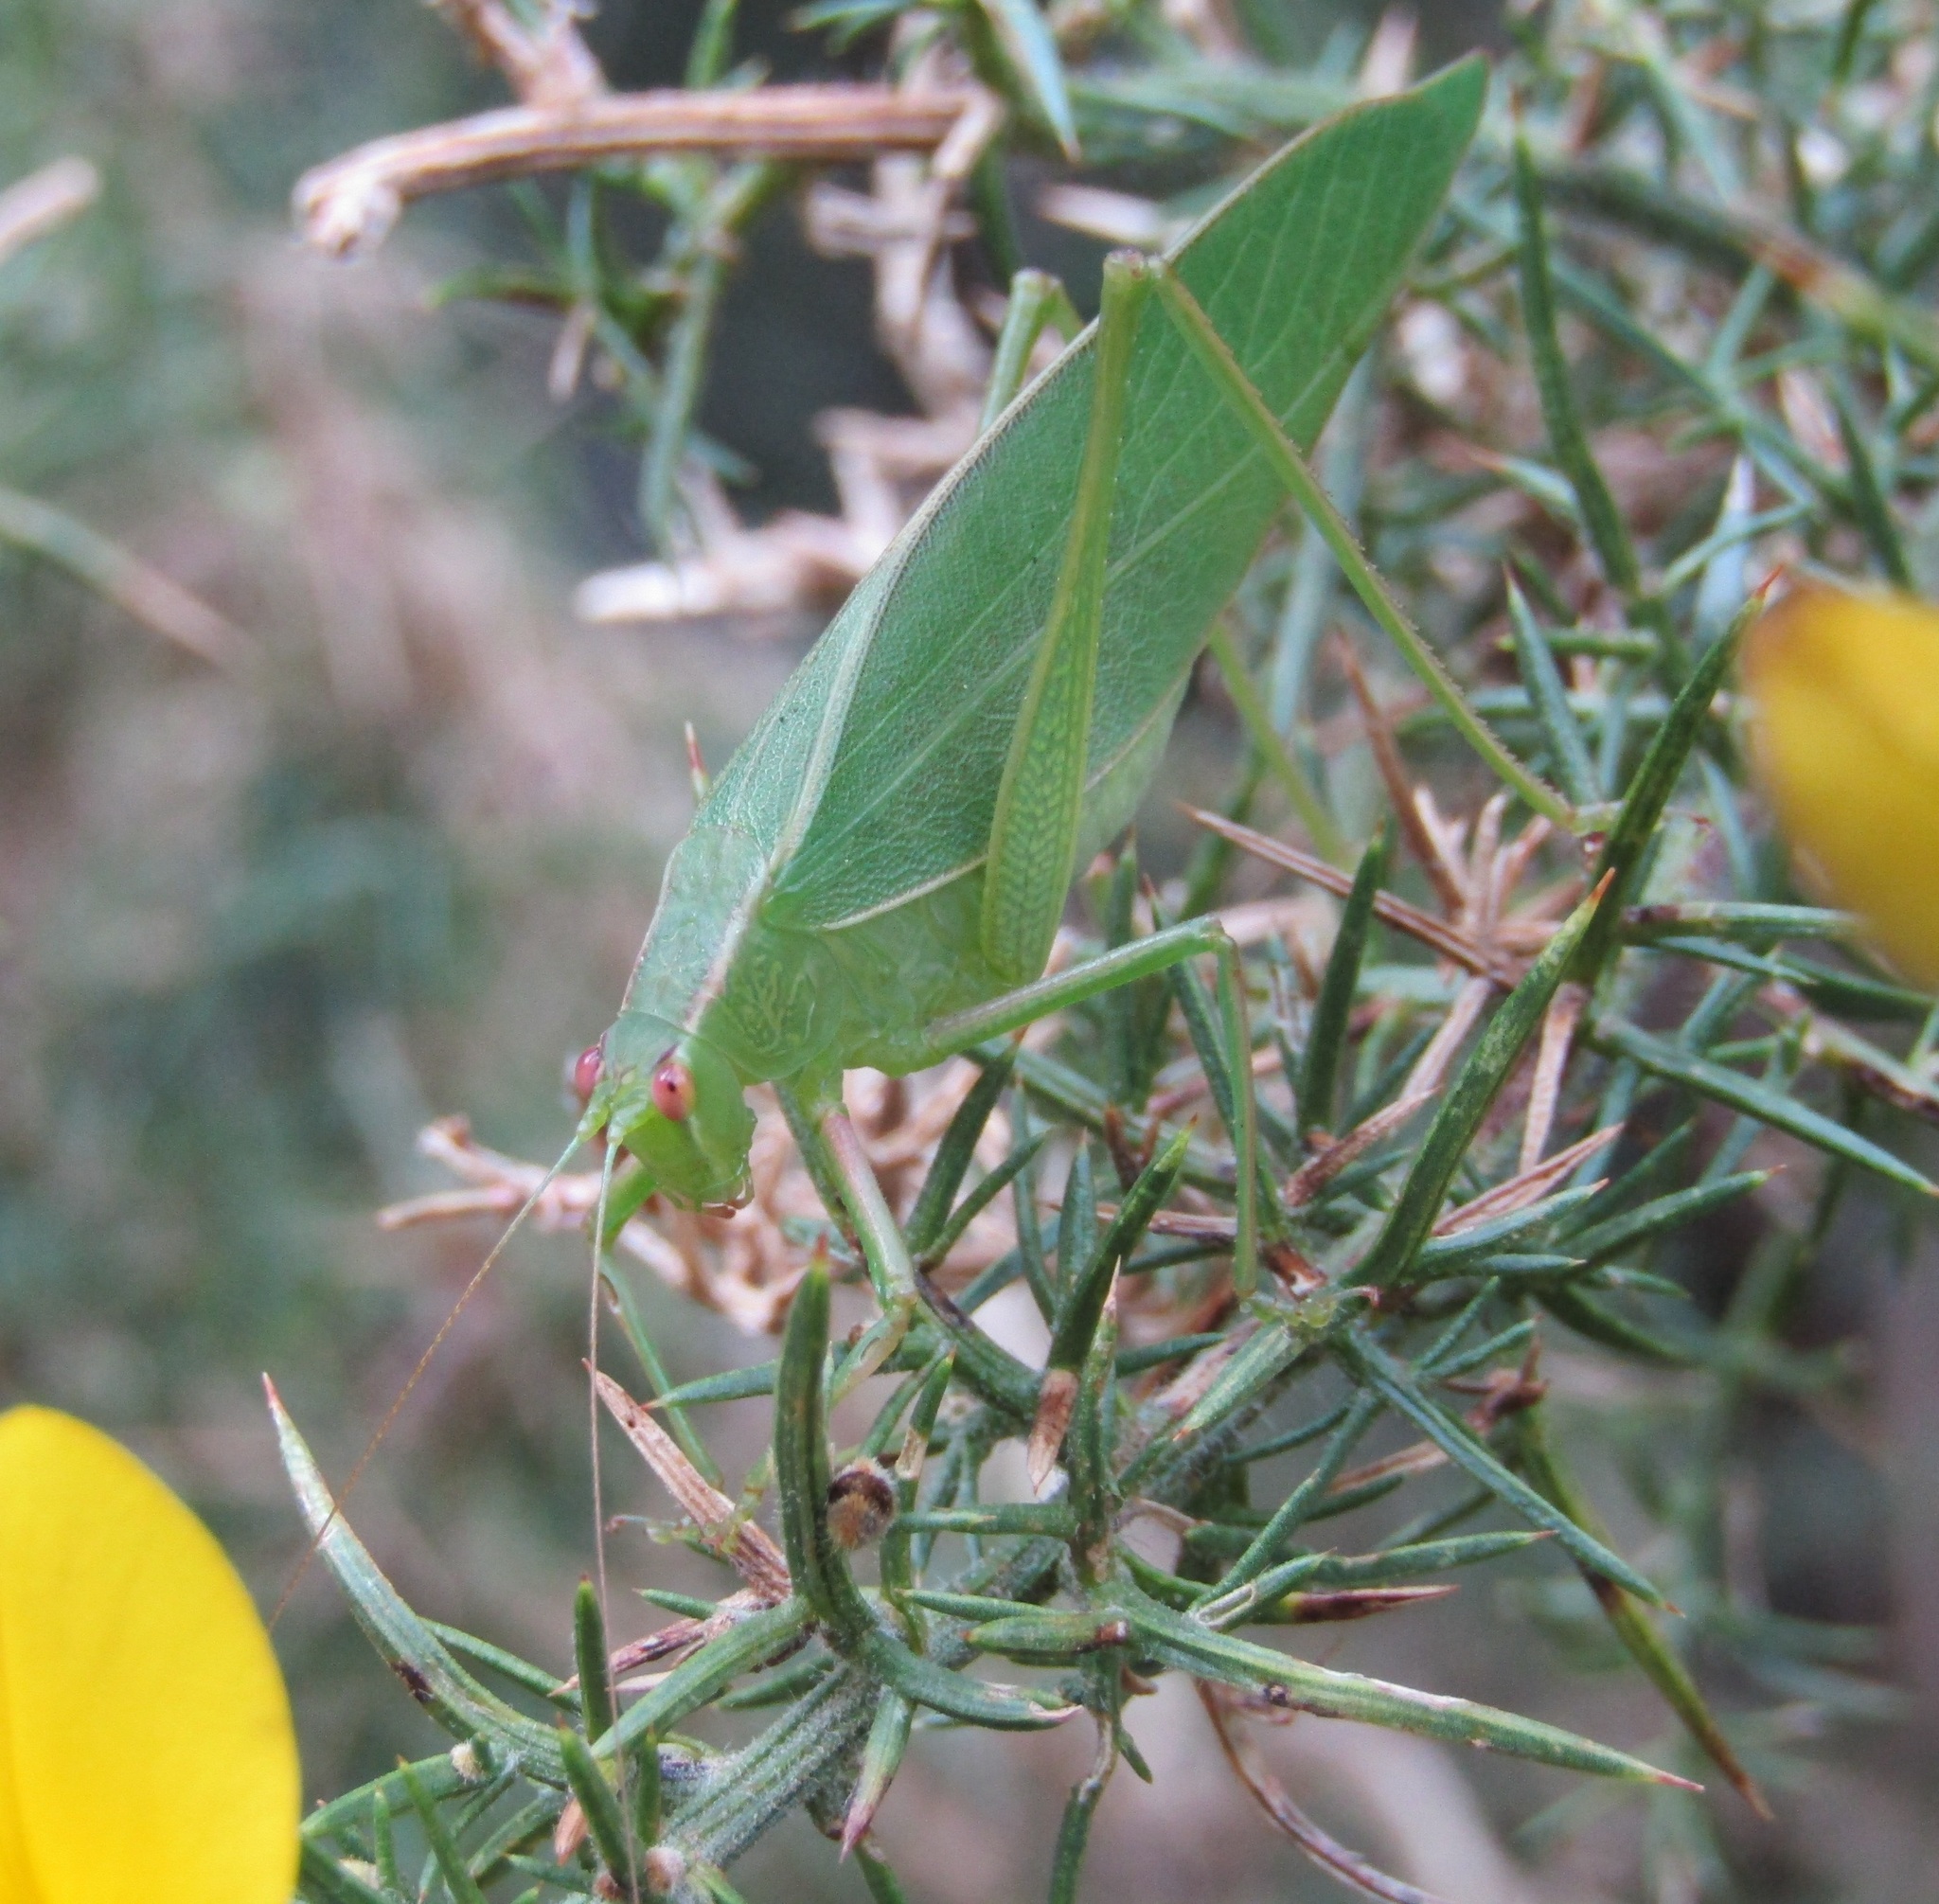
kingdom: Animalia
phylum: Arthropoda
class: Insecta
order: Orthoptera
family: Tettigoniidae
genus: Caedicia
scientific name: Caedicia simplex
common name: Common garden katydid
